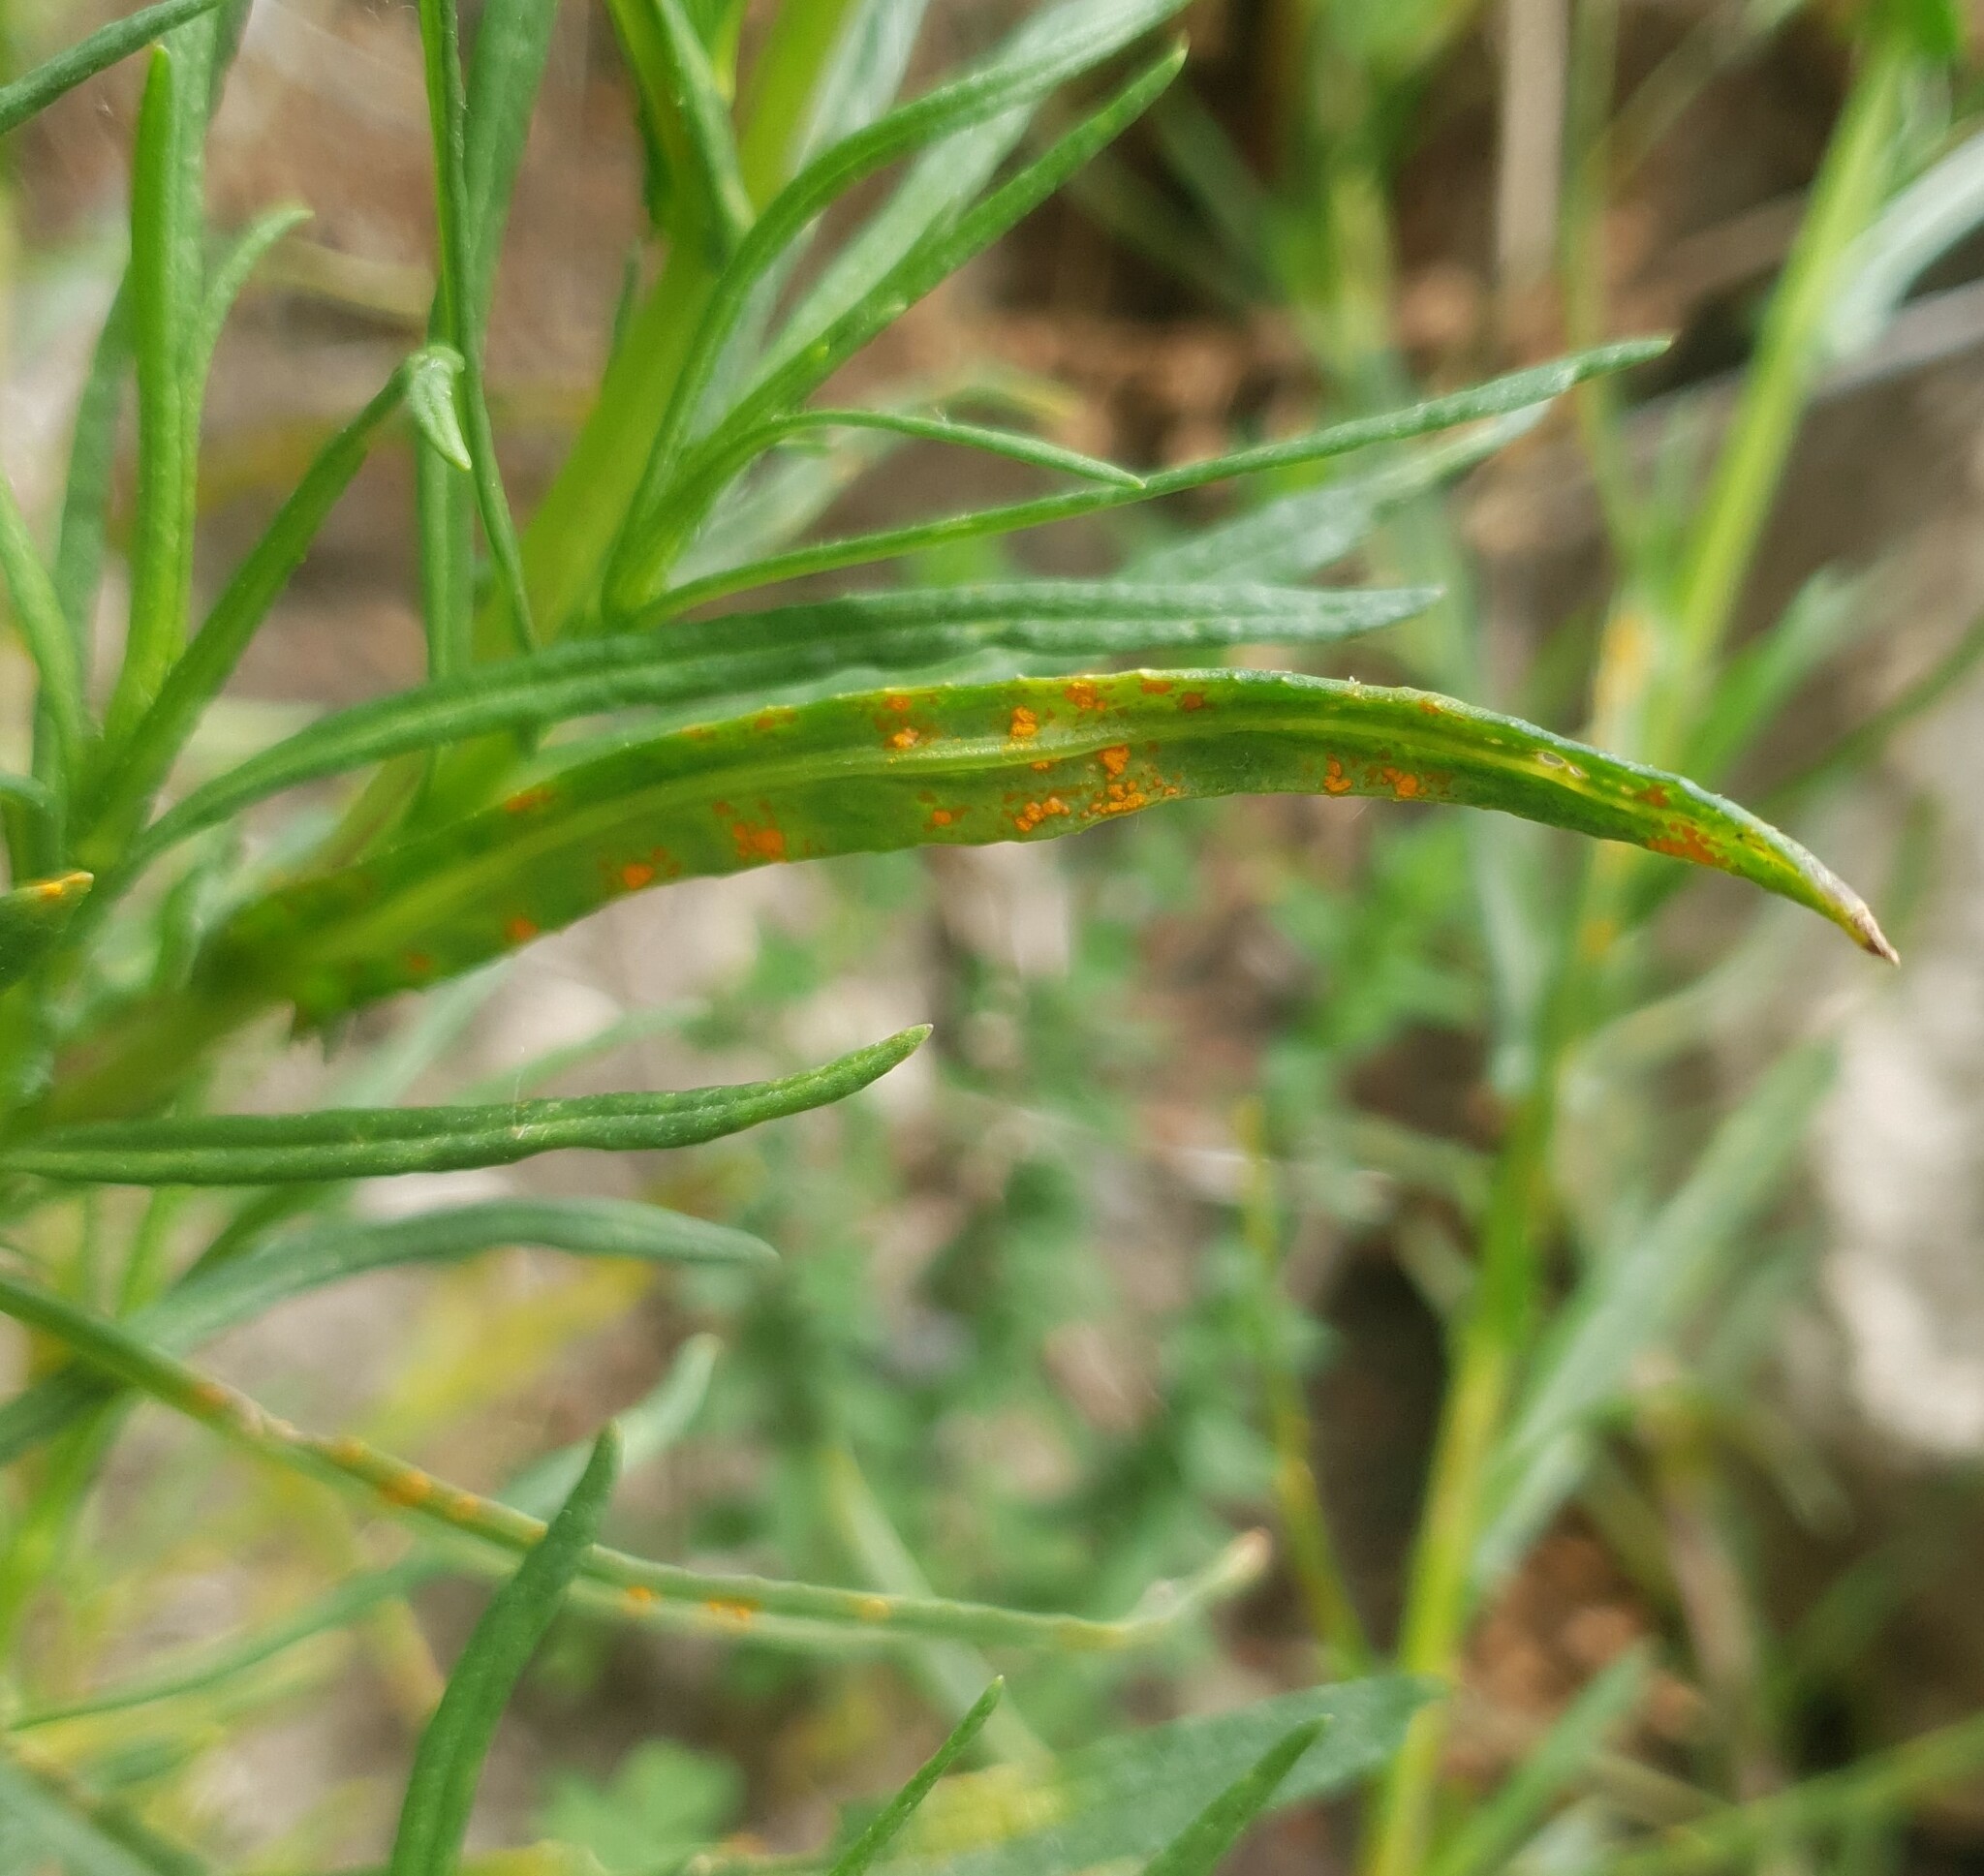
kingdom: Fungi
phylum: Basidiomycota
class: Pucciniomycetes
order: Pucciniales
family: Coleosporiaceae
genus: Coleosporium
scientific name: Coleosporium senecionis
